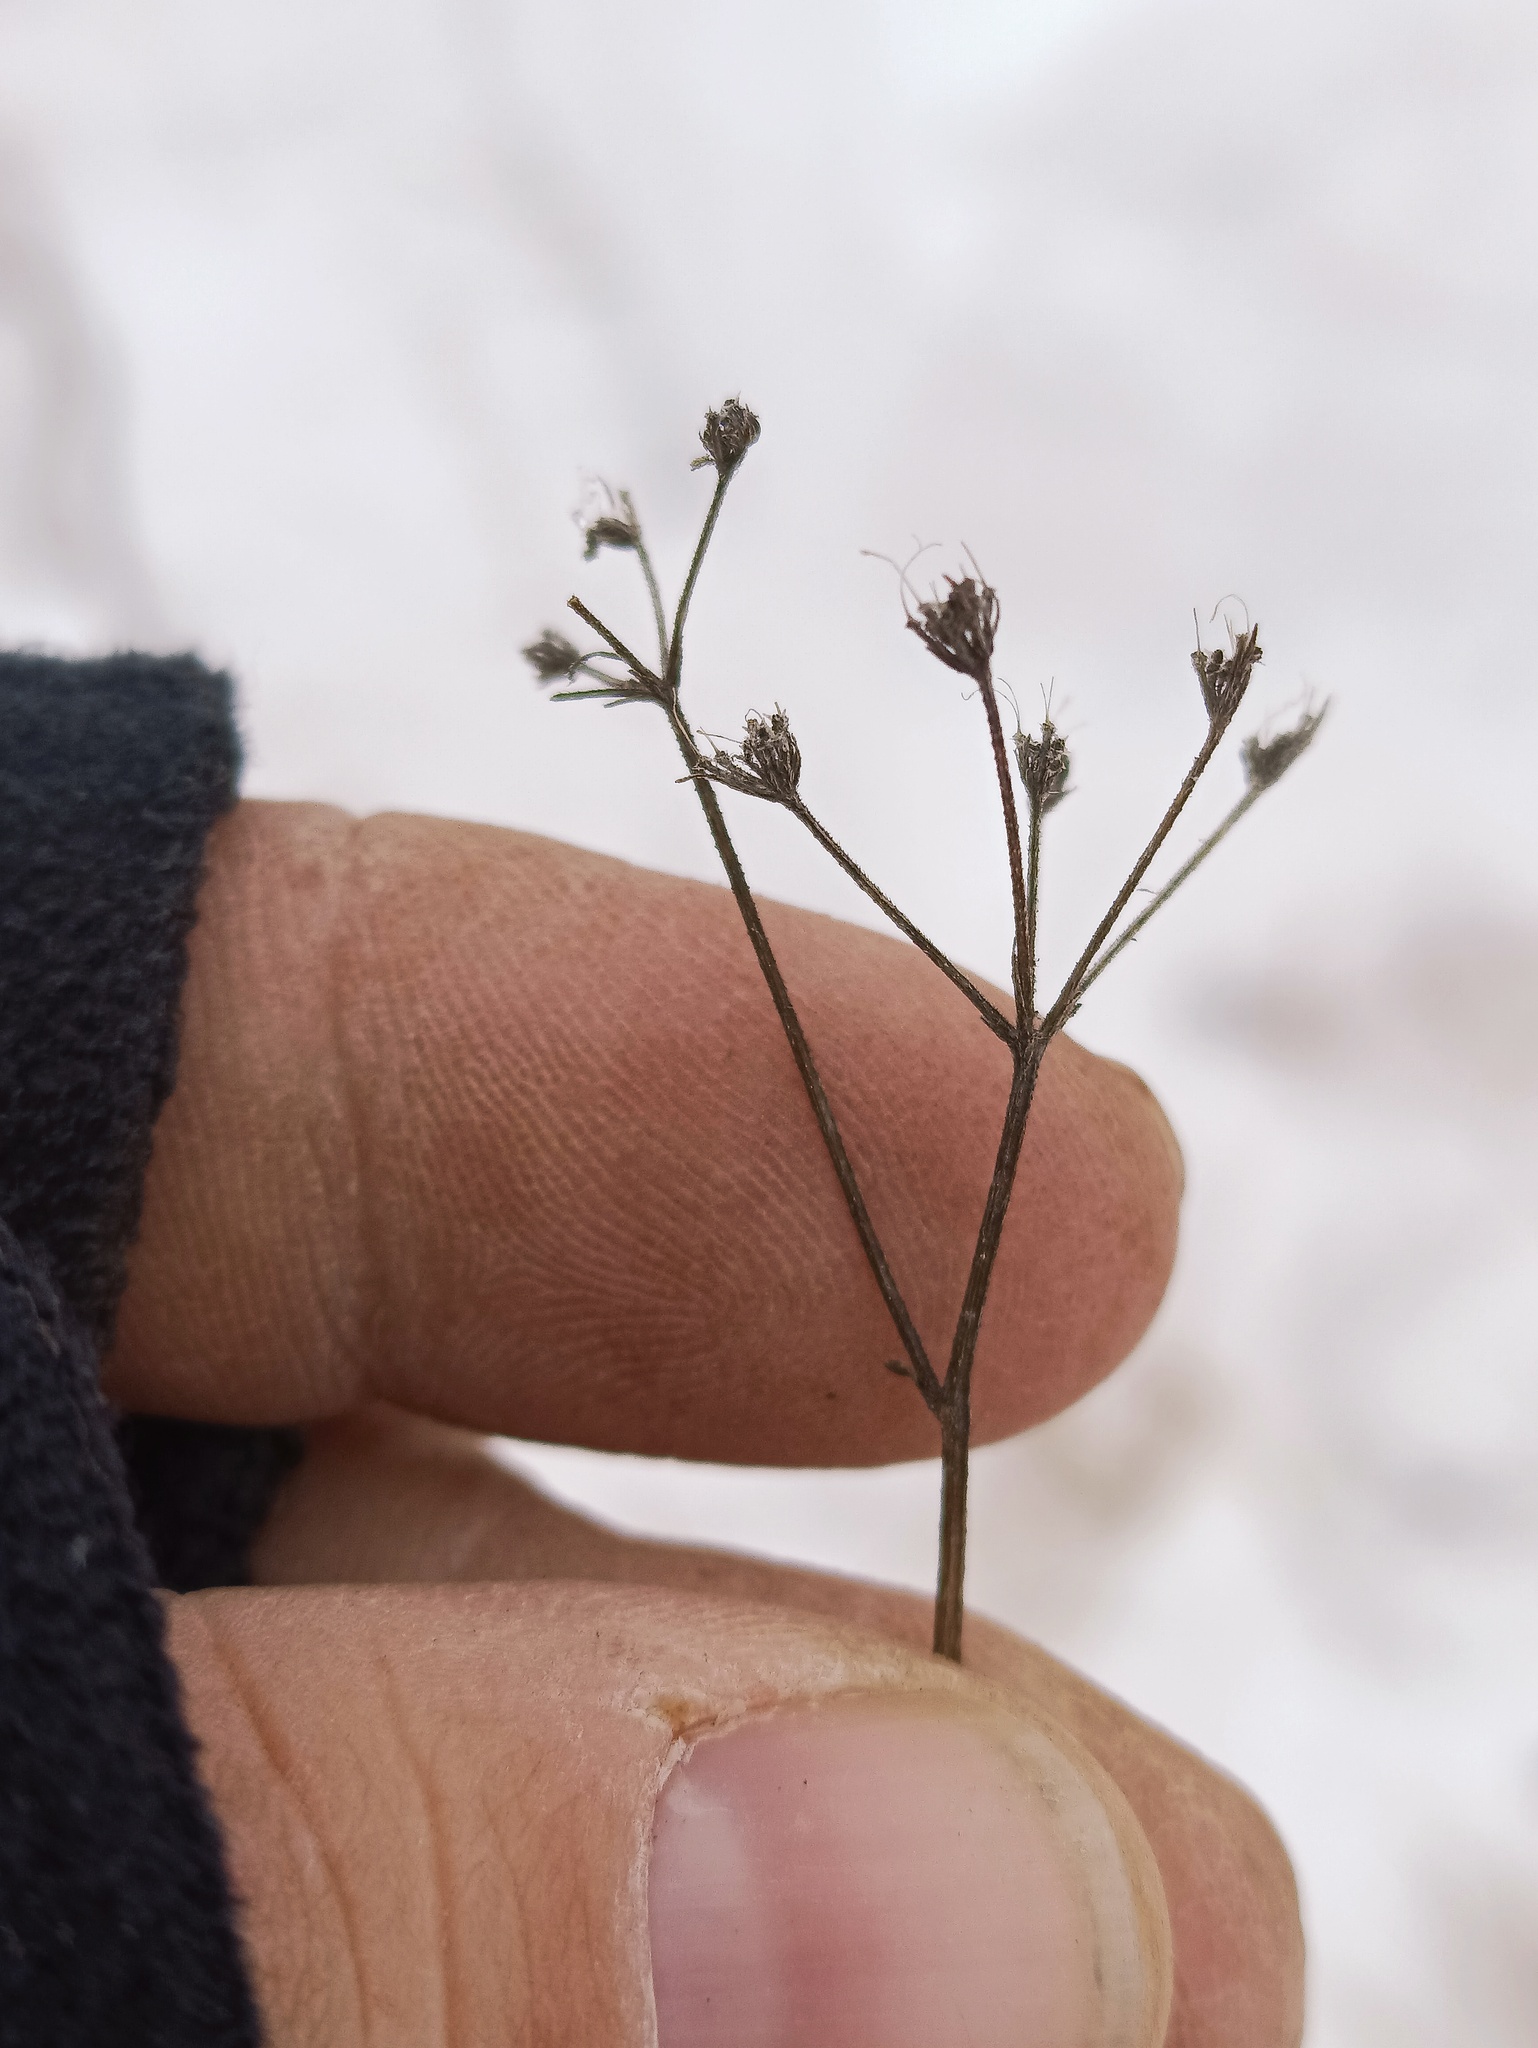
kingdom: Plantae
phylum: Tracheophyta
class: Magnoliopsida
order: Apiales
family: Apiaceae
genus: Torilis
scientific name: Torilis japonica
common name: Upright hedge-parsley
